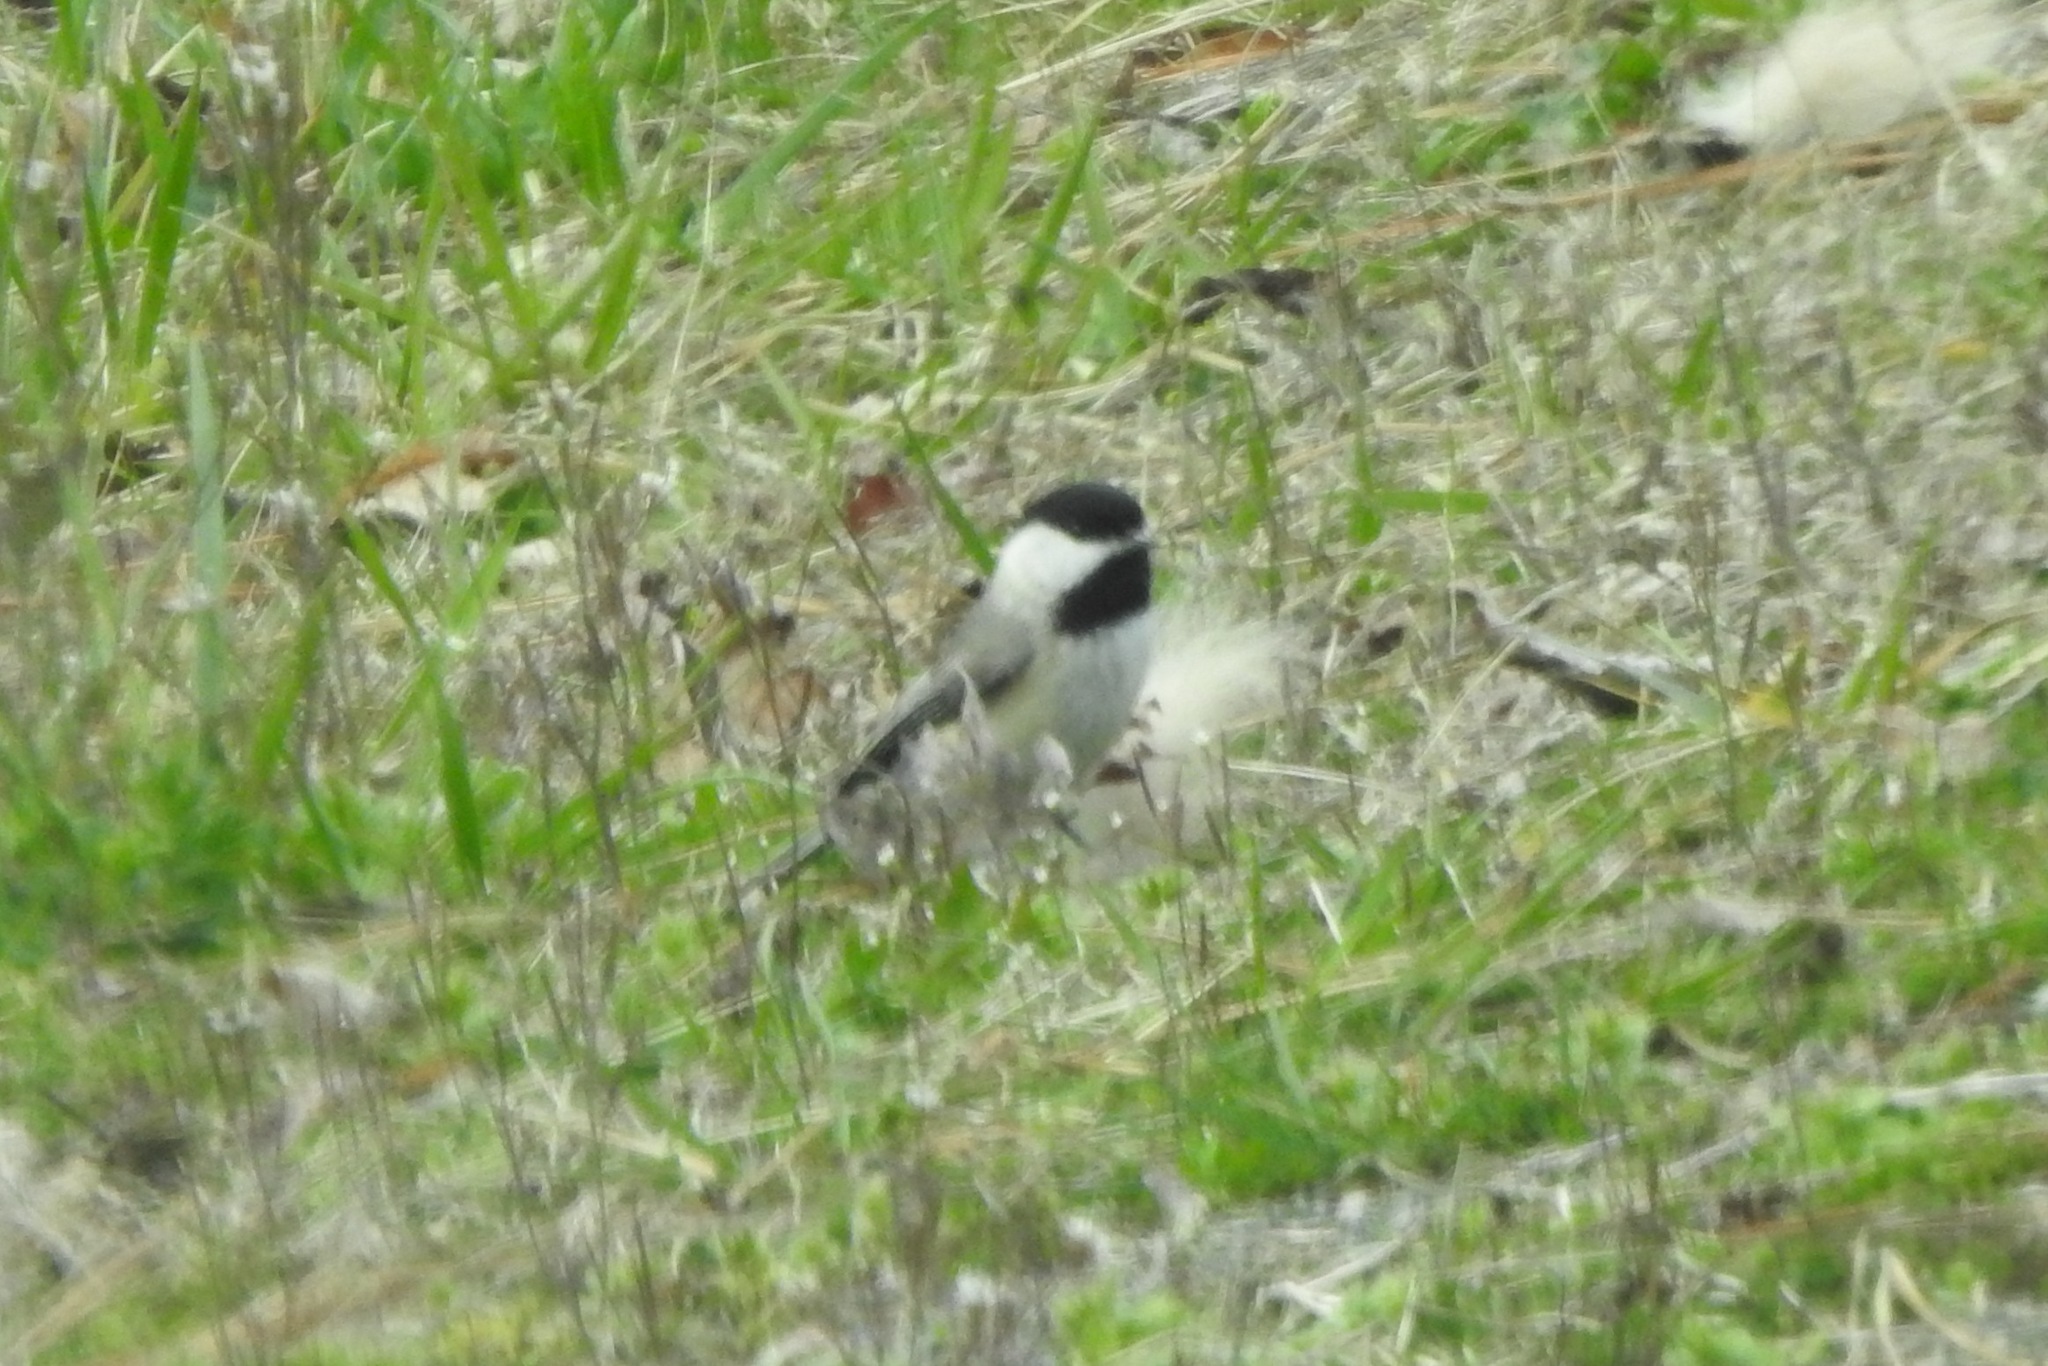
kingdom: Animalia
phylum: Chordata
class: Aves
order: Passeriformes
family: Paridae
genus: Poecile
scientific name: Poecile carolinensis
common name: Carolina chickadee
